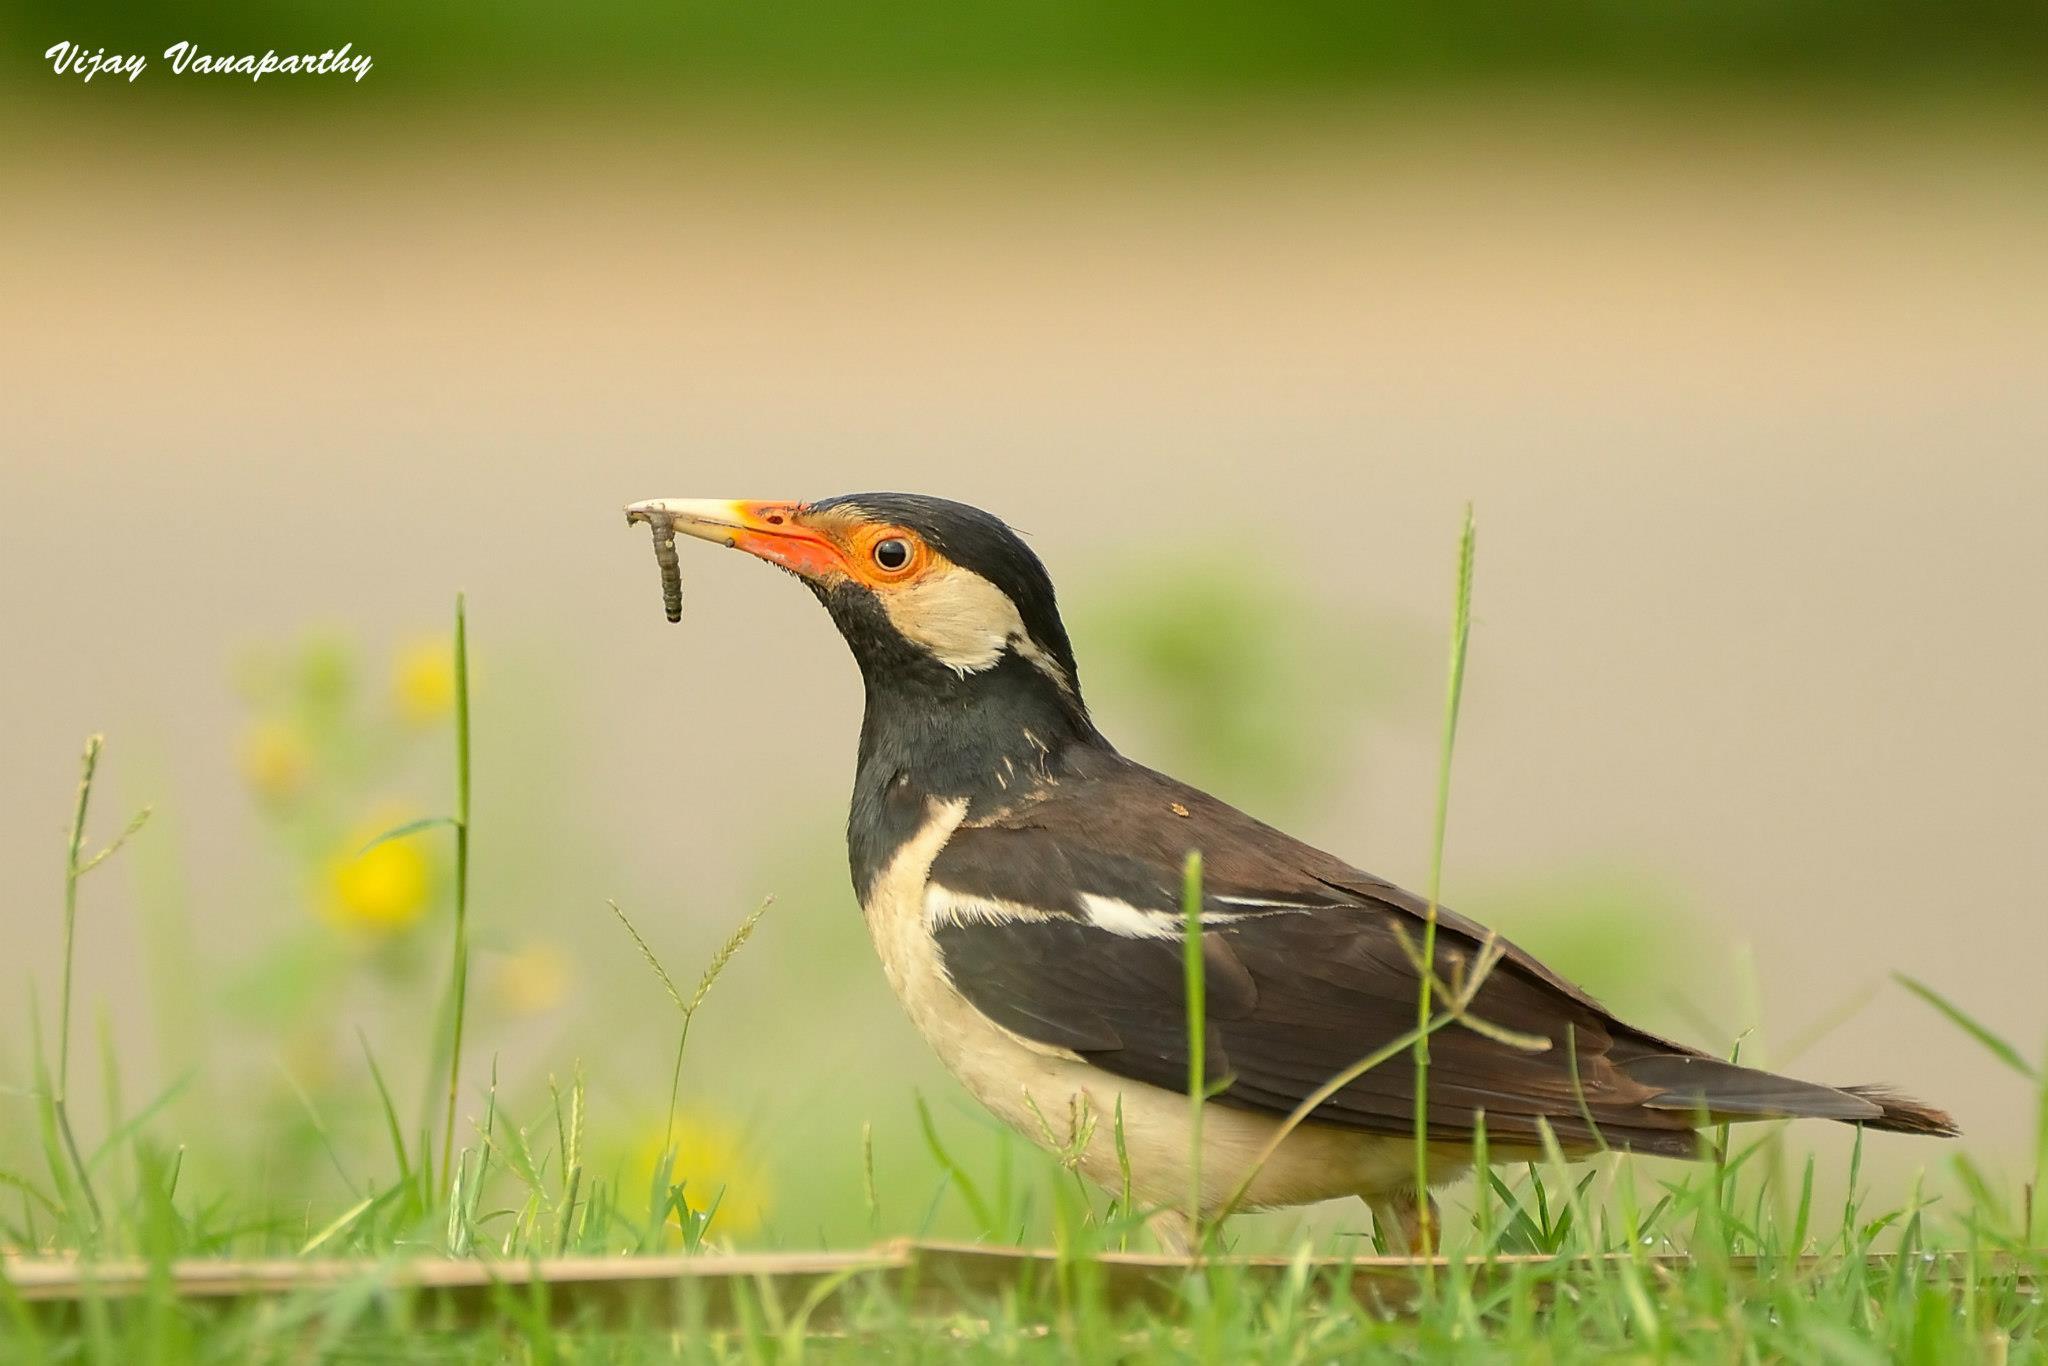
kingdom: Animalia
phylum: Chordata
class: Aves
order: Passeriformes
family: Sturnidae
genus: Gracupica
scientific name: Gracupica contra
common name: Pied myna
